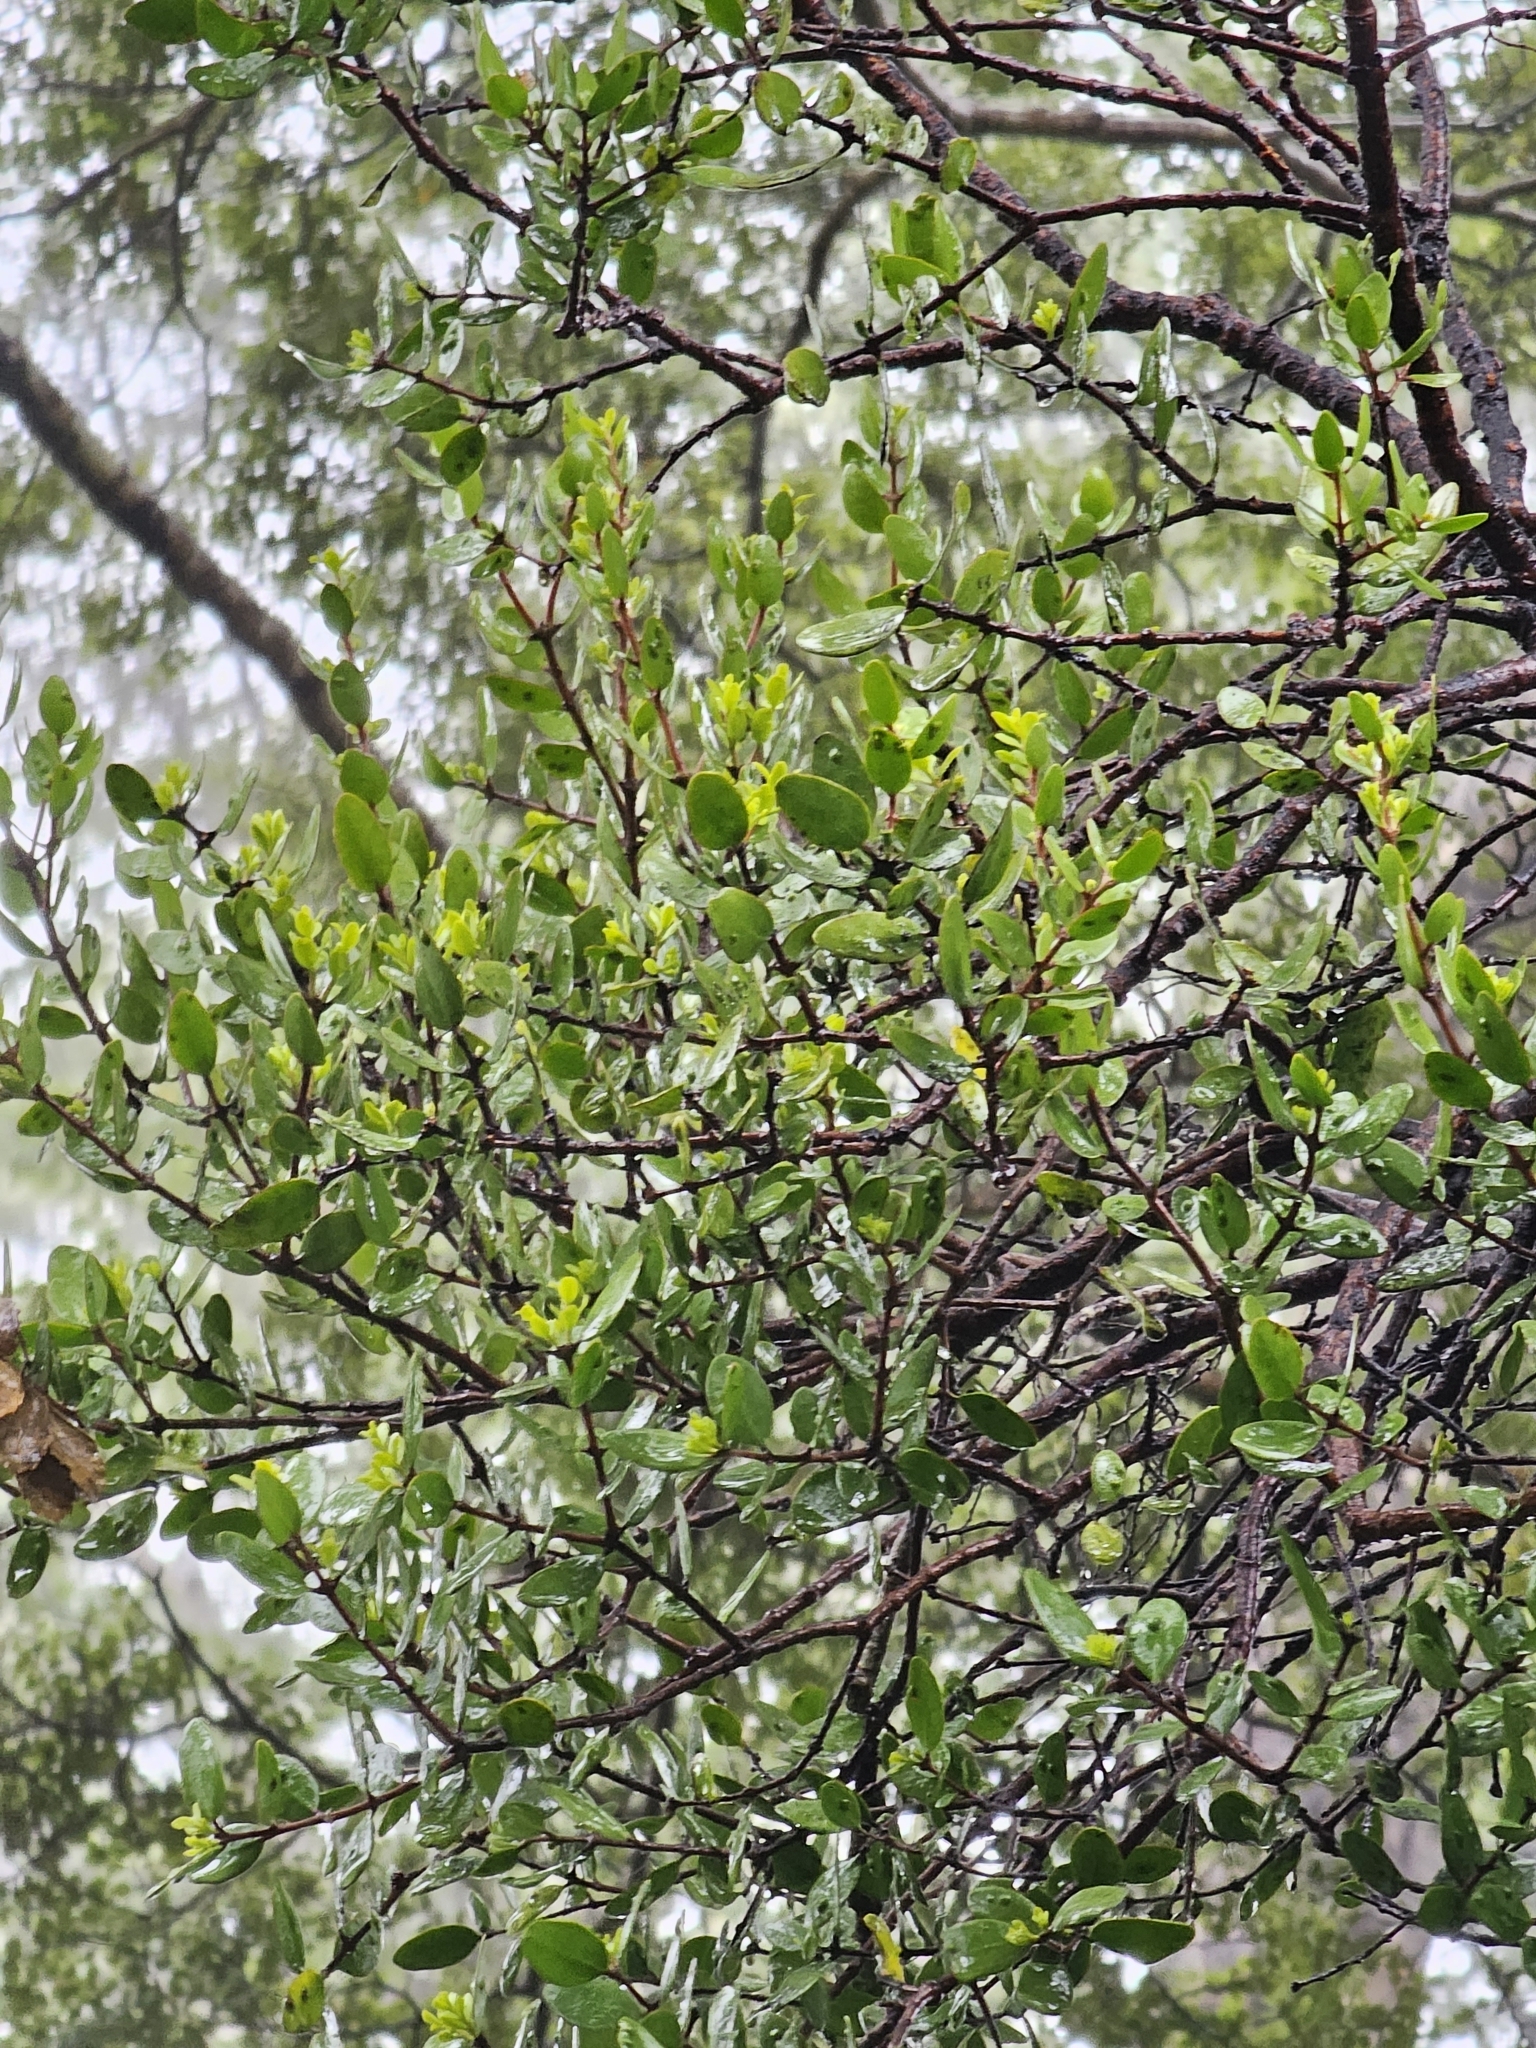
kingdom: Plantae
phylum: Tracheophyta
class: Magnoliopsida
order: Santalales
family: Loranthaceae
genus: Peraxilla
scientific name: Peraxilla tetrapetala
